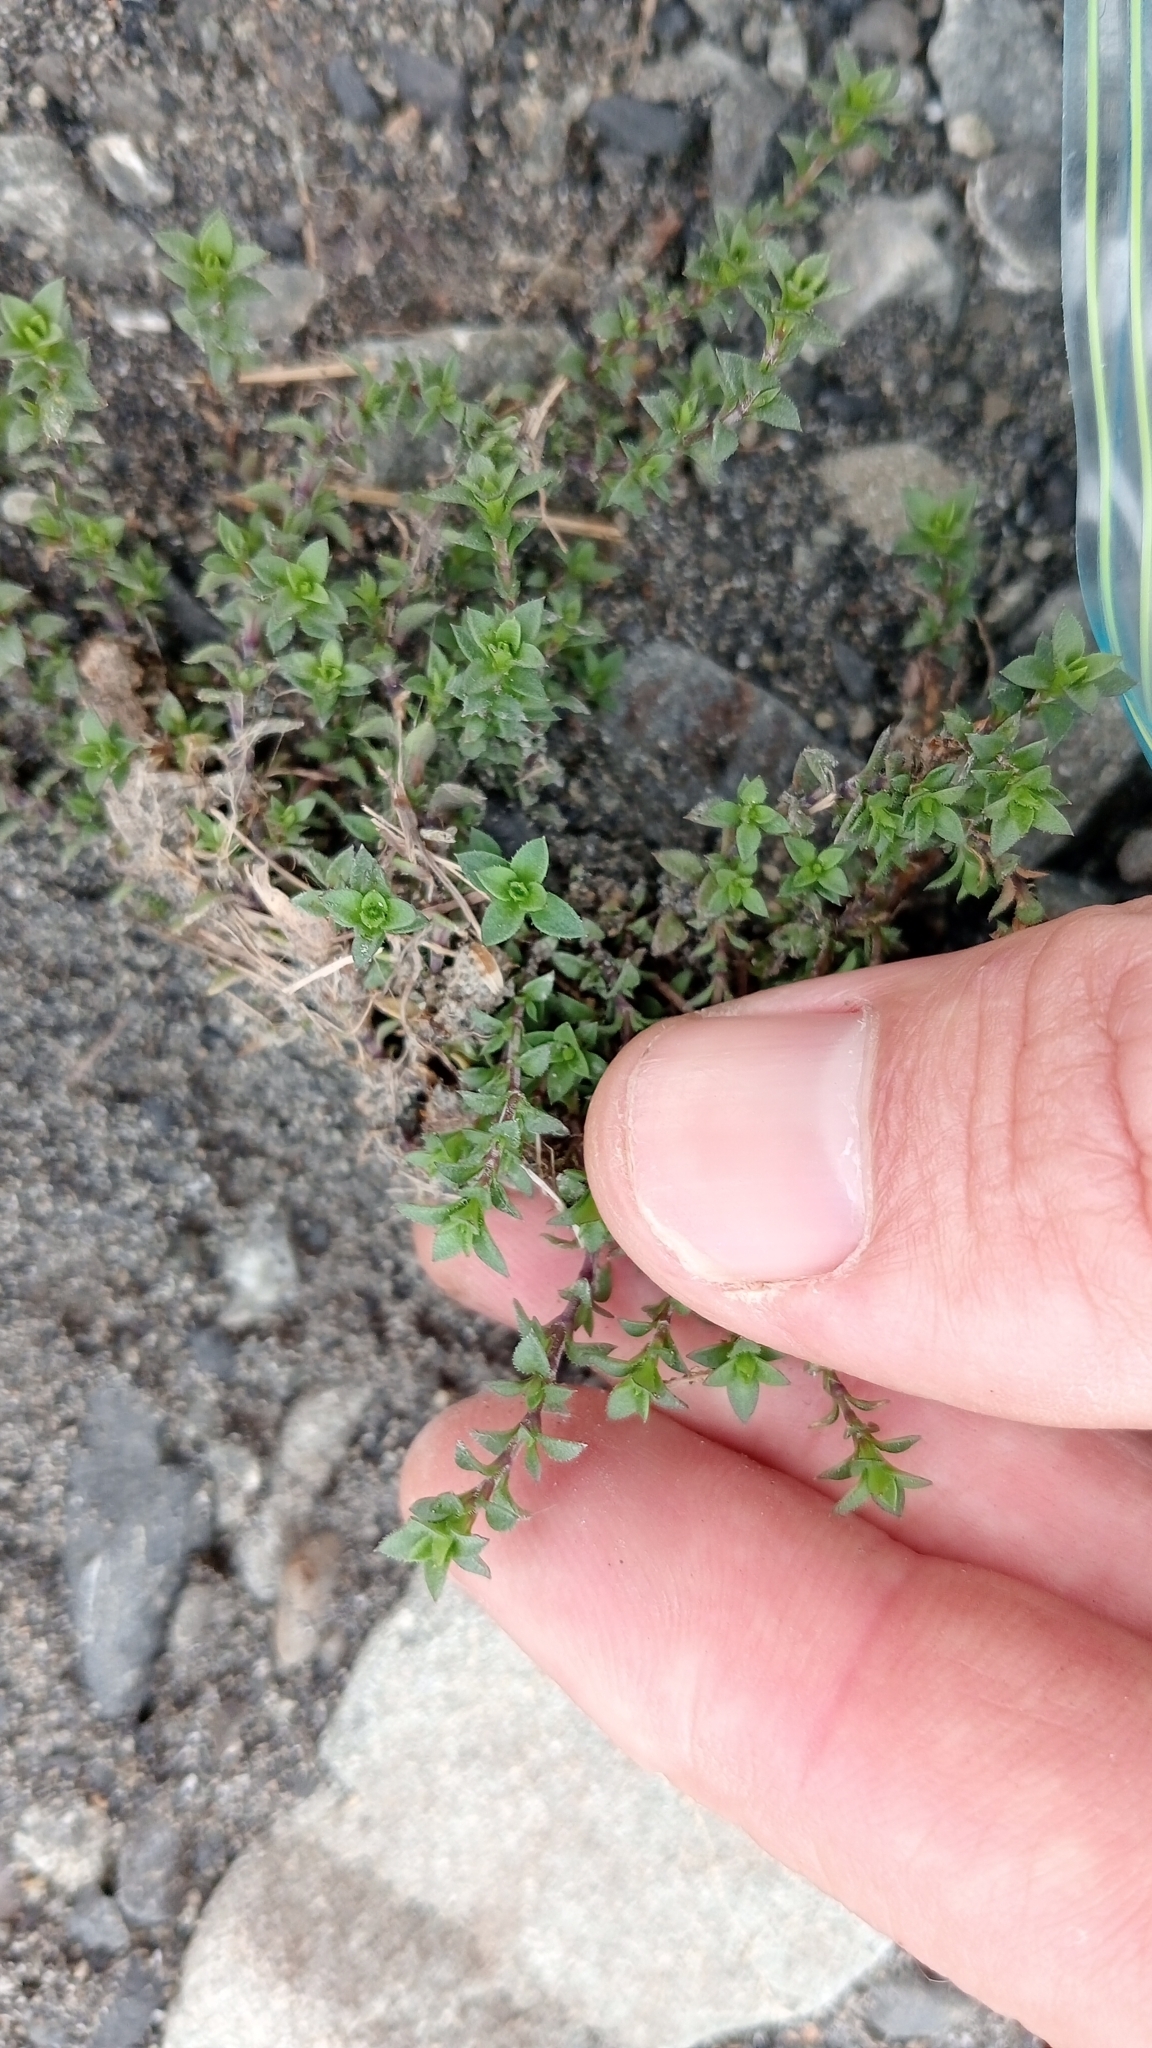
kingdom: Plantae
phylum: Tracheophyta
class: Magnoliopsida
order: Caryophyllales
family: Caryophyllaceae
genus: Arenaria
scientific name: Arenaria serpyllifolia
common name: Thyme-leaved sandwort
